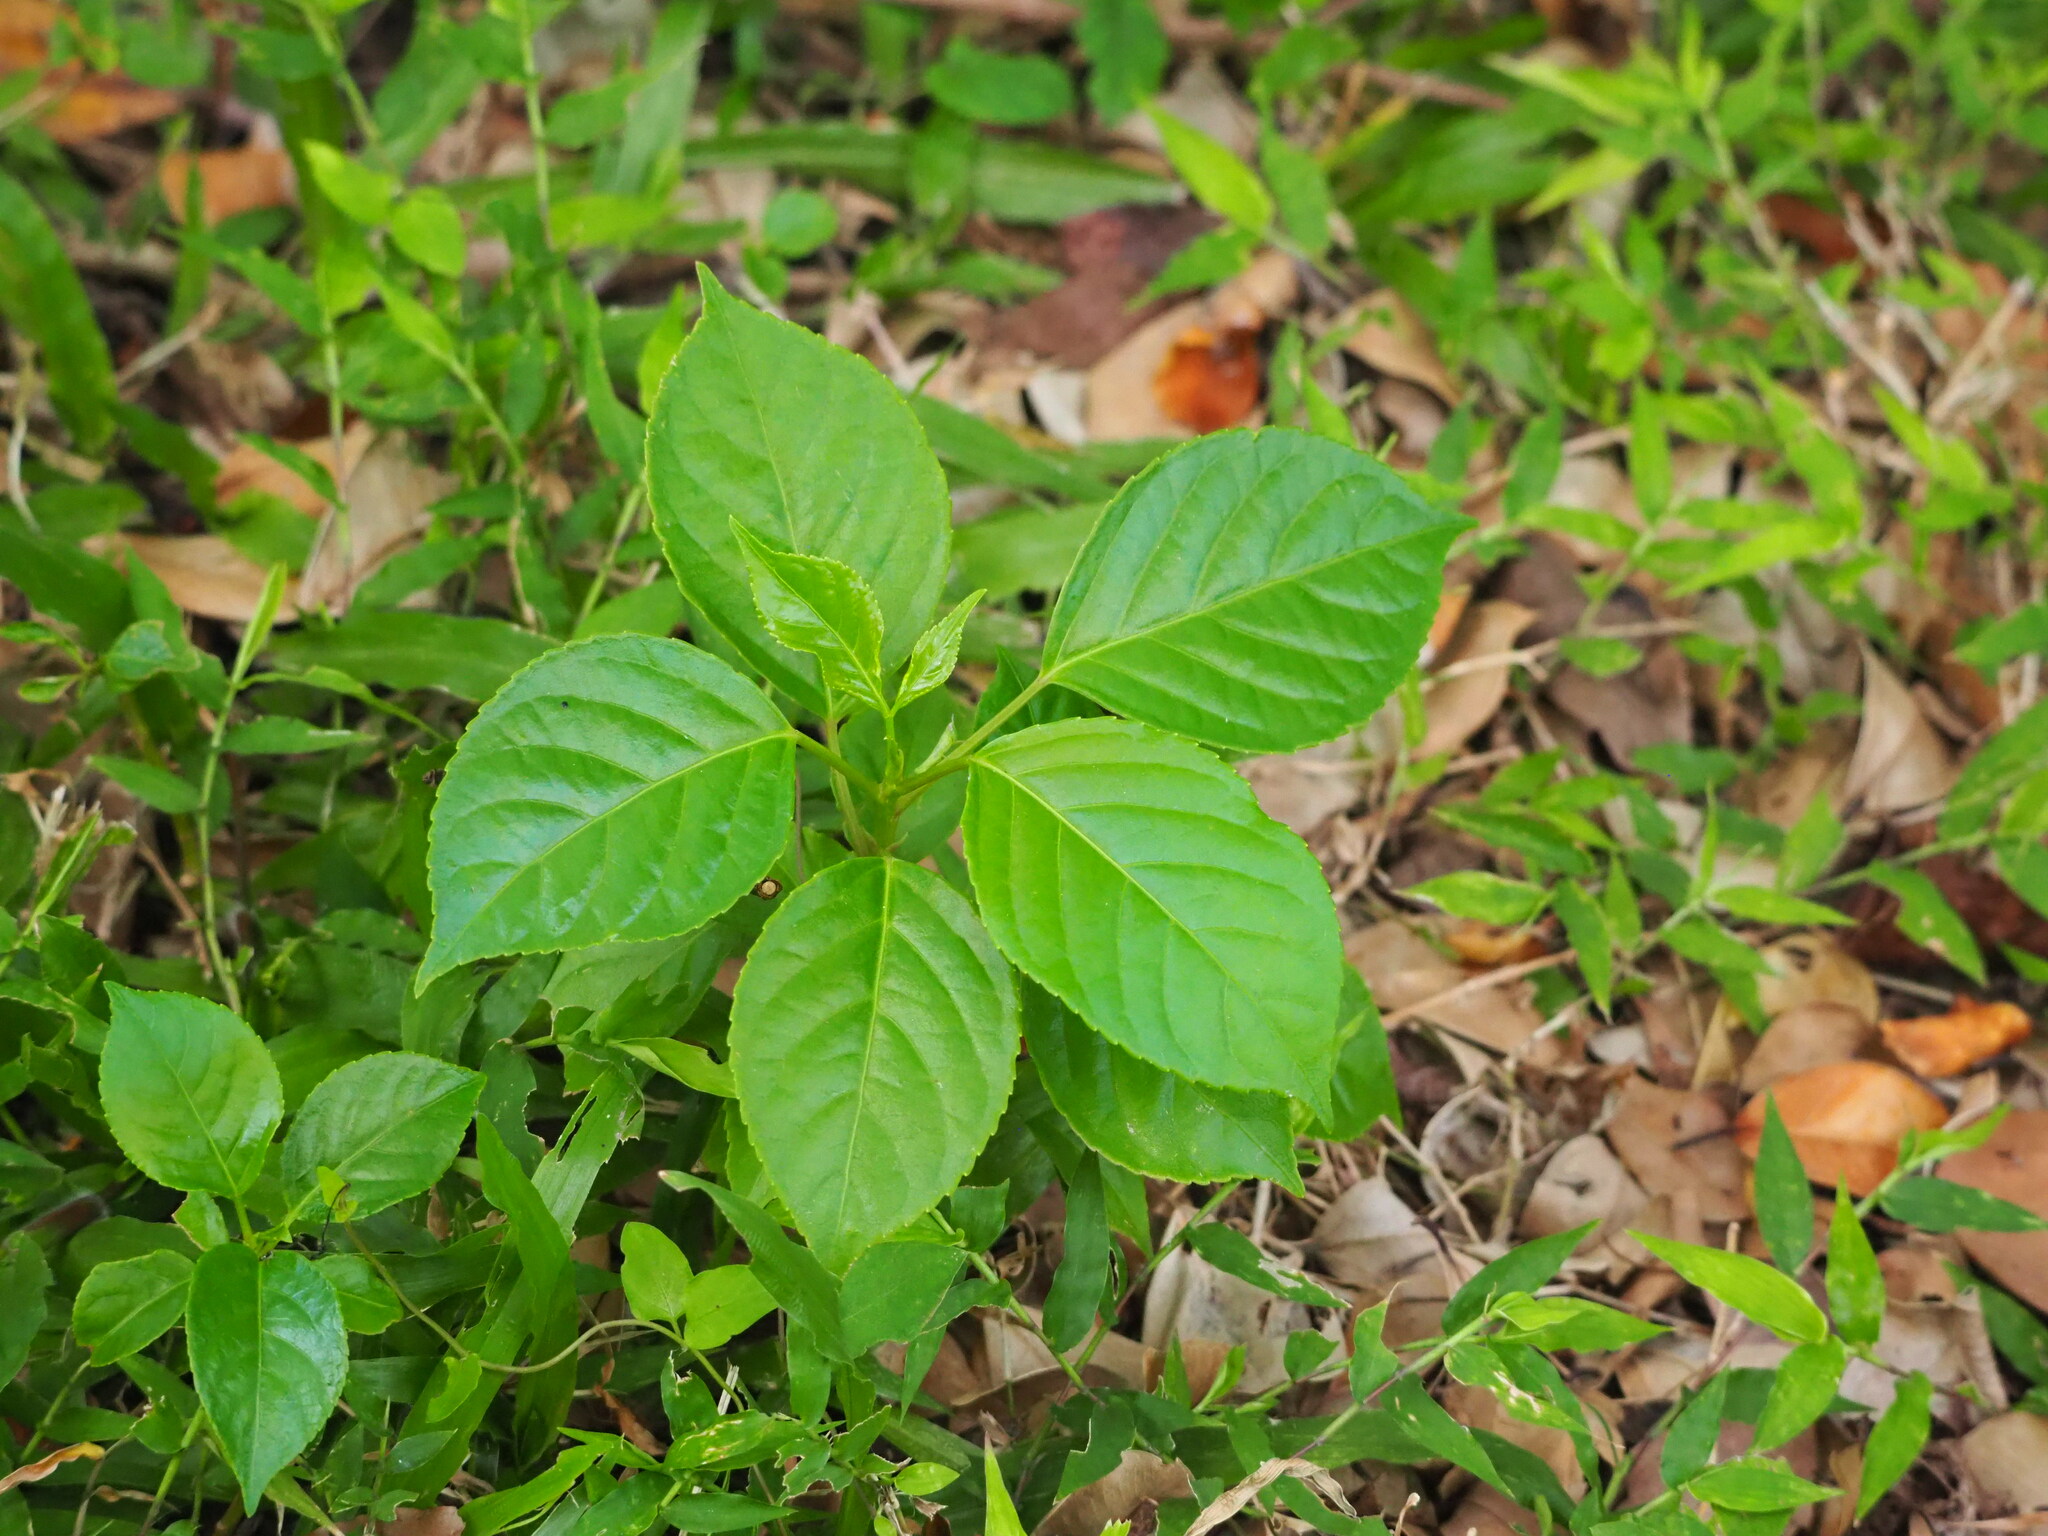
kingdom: Plantae
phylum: Tracheophyta
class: Magnoliopsida
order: Malpighiales
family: Phyllanthaceae
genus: Bischofia
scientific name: Bischofia javanica
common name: Javanese bishopwood
